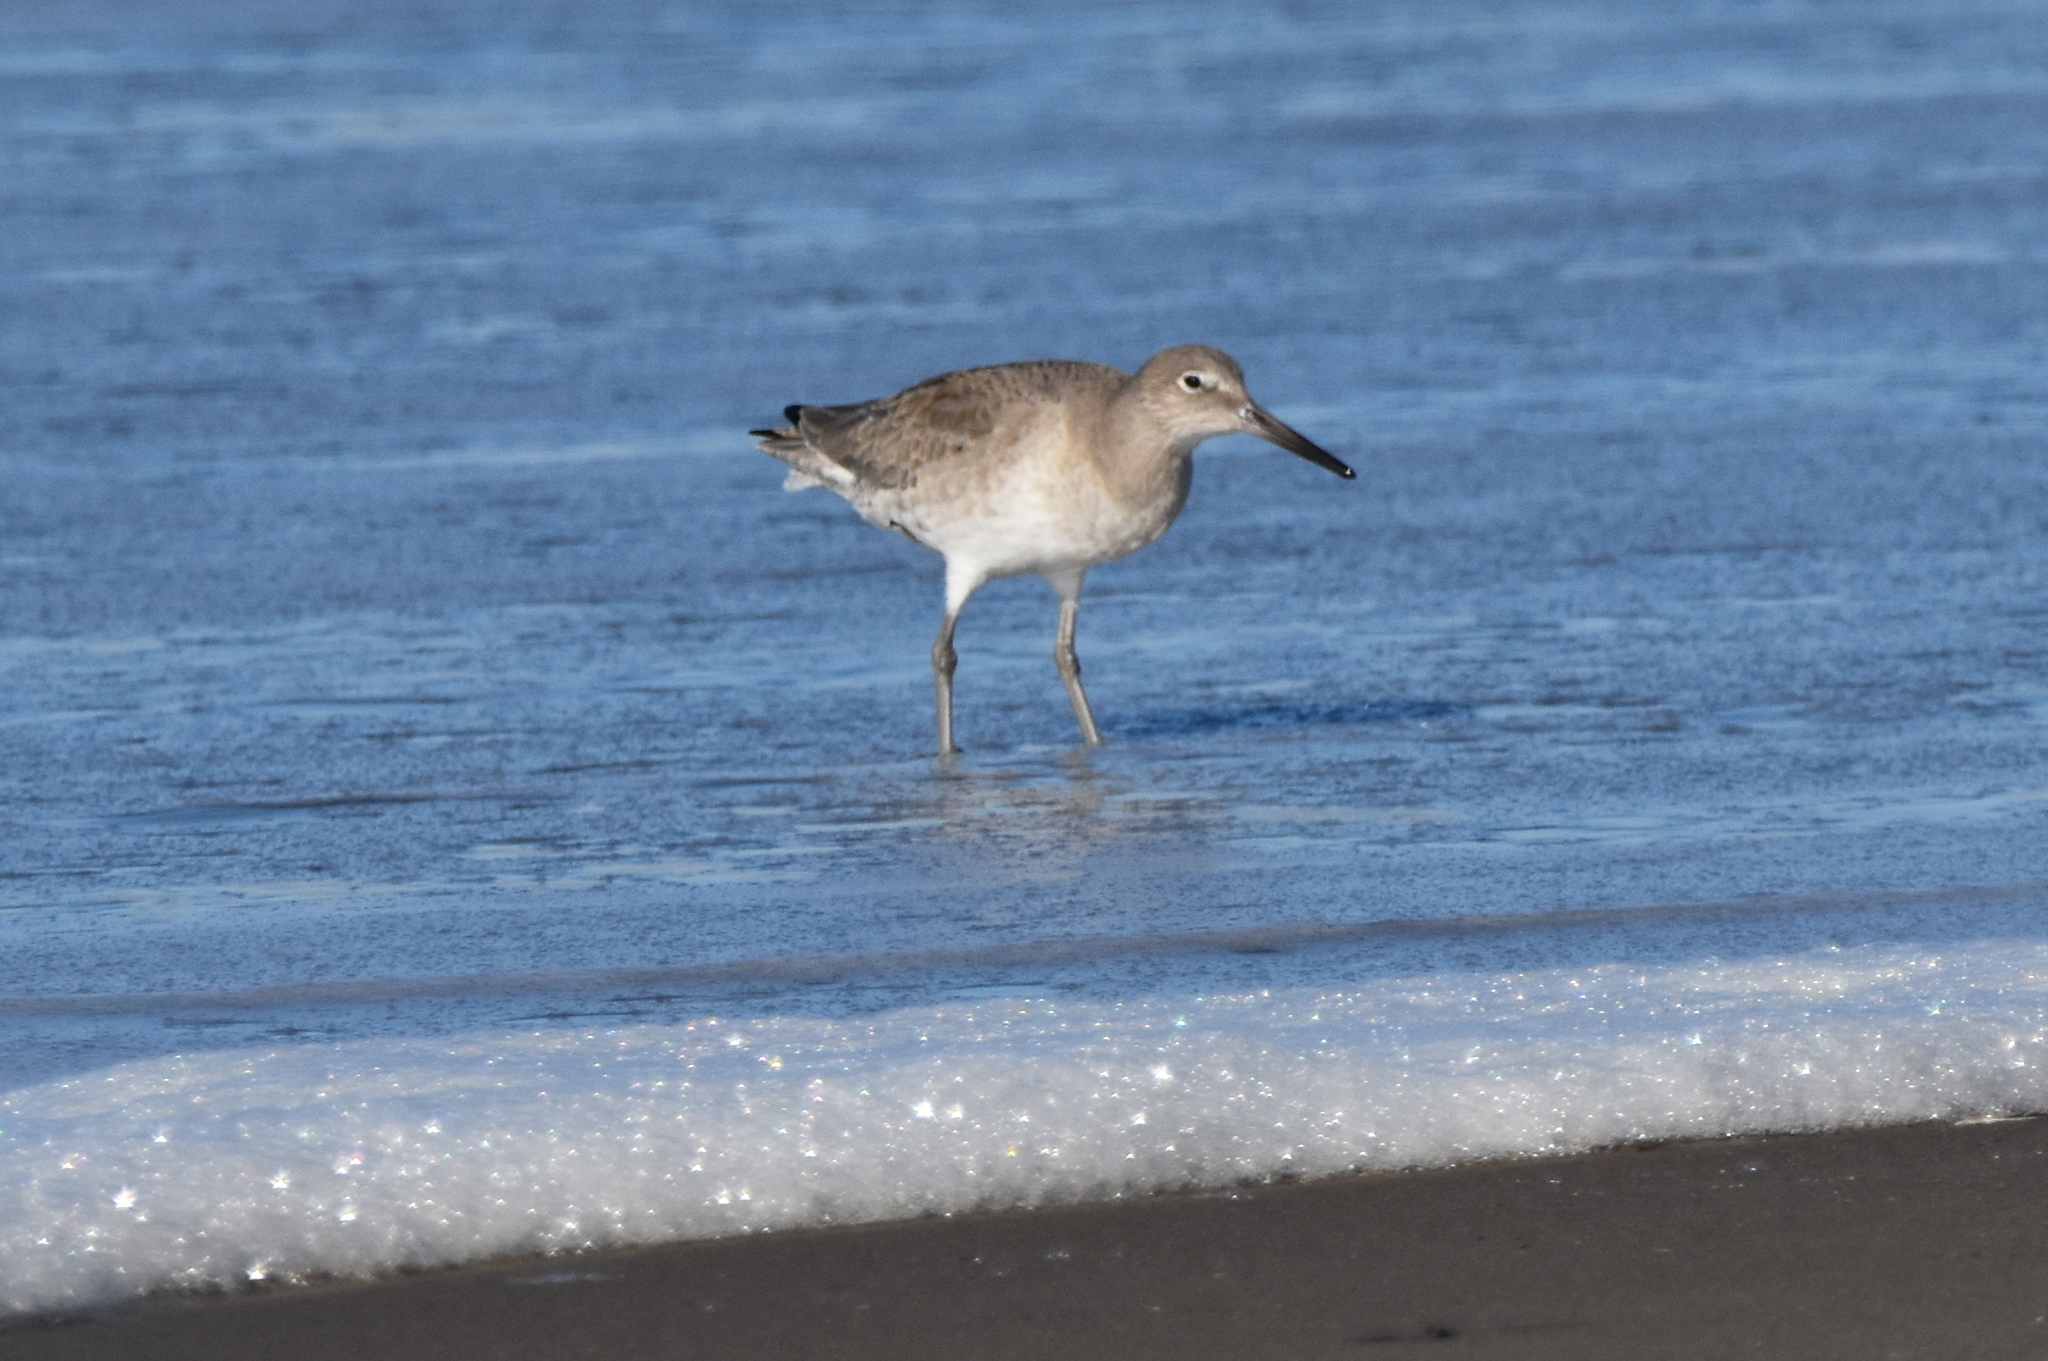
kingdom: Animalia
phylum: Chordata
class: Aves
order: Charadriiformes
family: Scolopacidae
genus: Tringa
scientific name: Tringa semipalmata
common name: Willet
